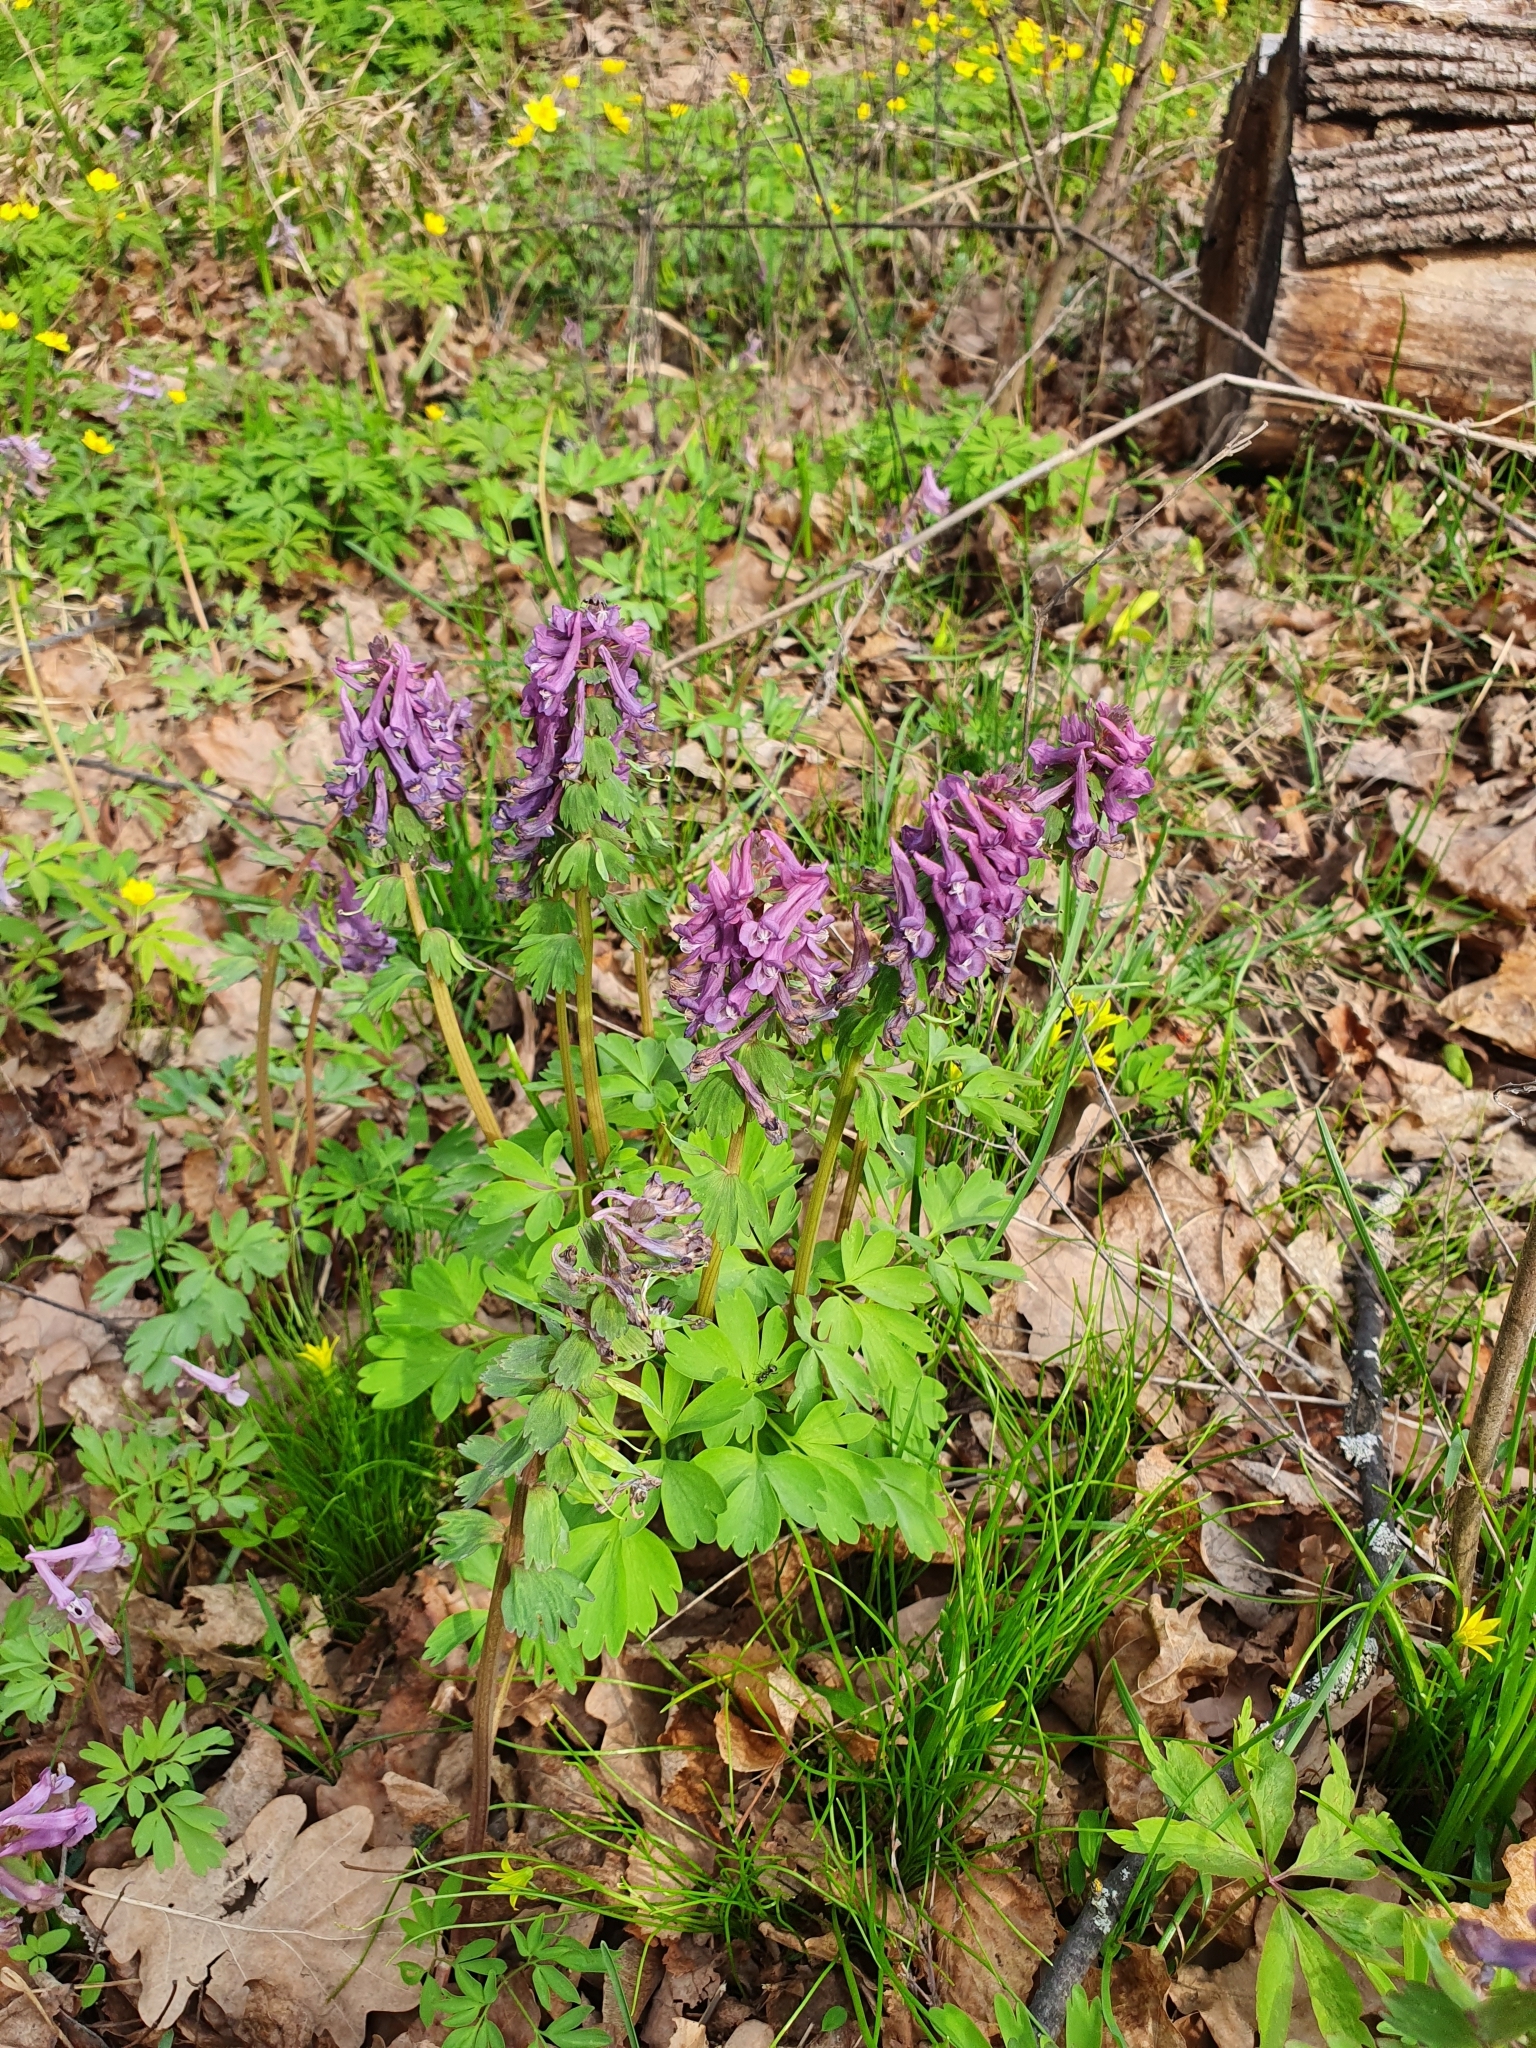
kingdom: Plantae
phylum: Tracheophyta
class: Magnoliopsida
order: Ranunculales
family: Papaveraceae
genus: Corydalis
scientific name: Corydalis solida
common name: Bird-in-a-bush
